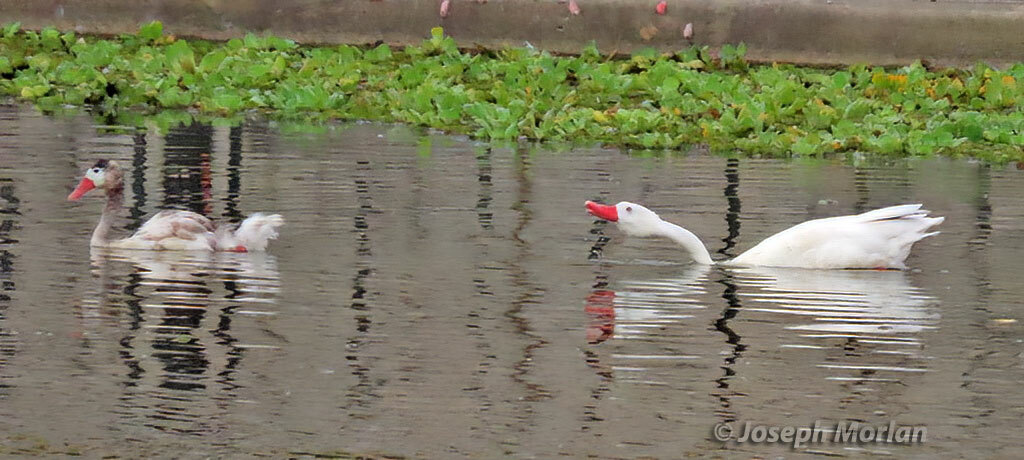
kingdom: Animalia
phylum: Chordata
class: Aves
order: Anseriformes
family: Anatidae
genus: Coscoroba
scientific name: Coscoroba coscoroba
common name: Coscoroba swan
